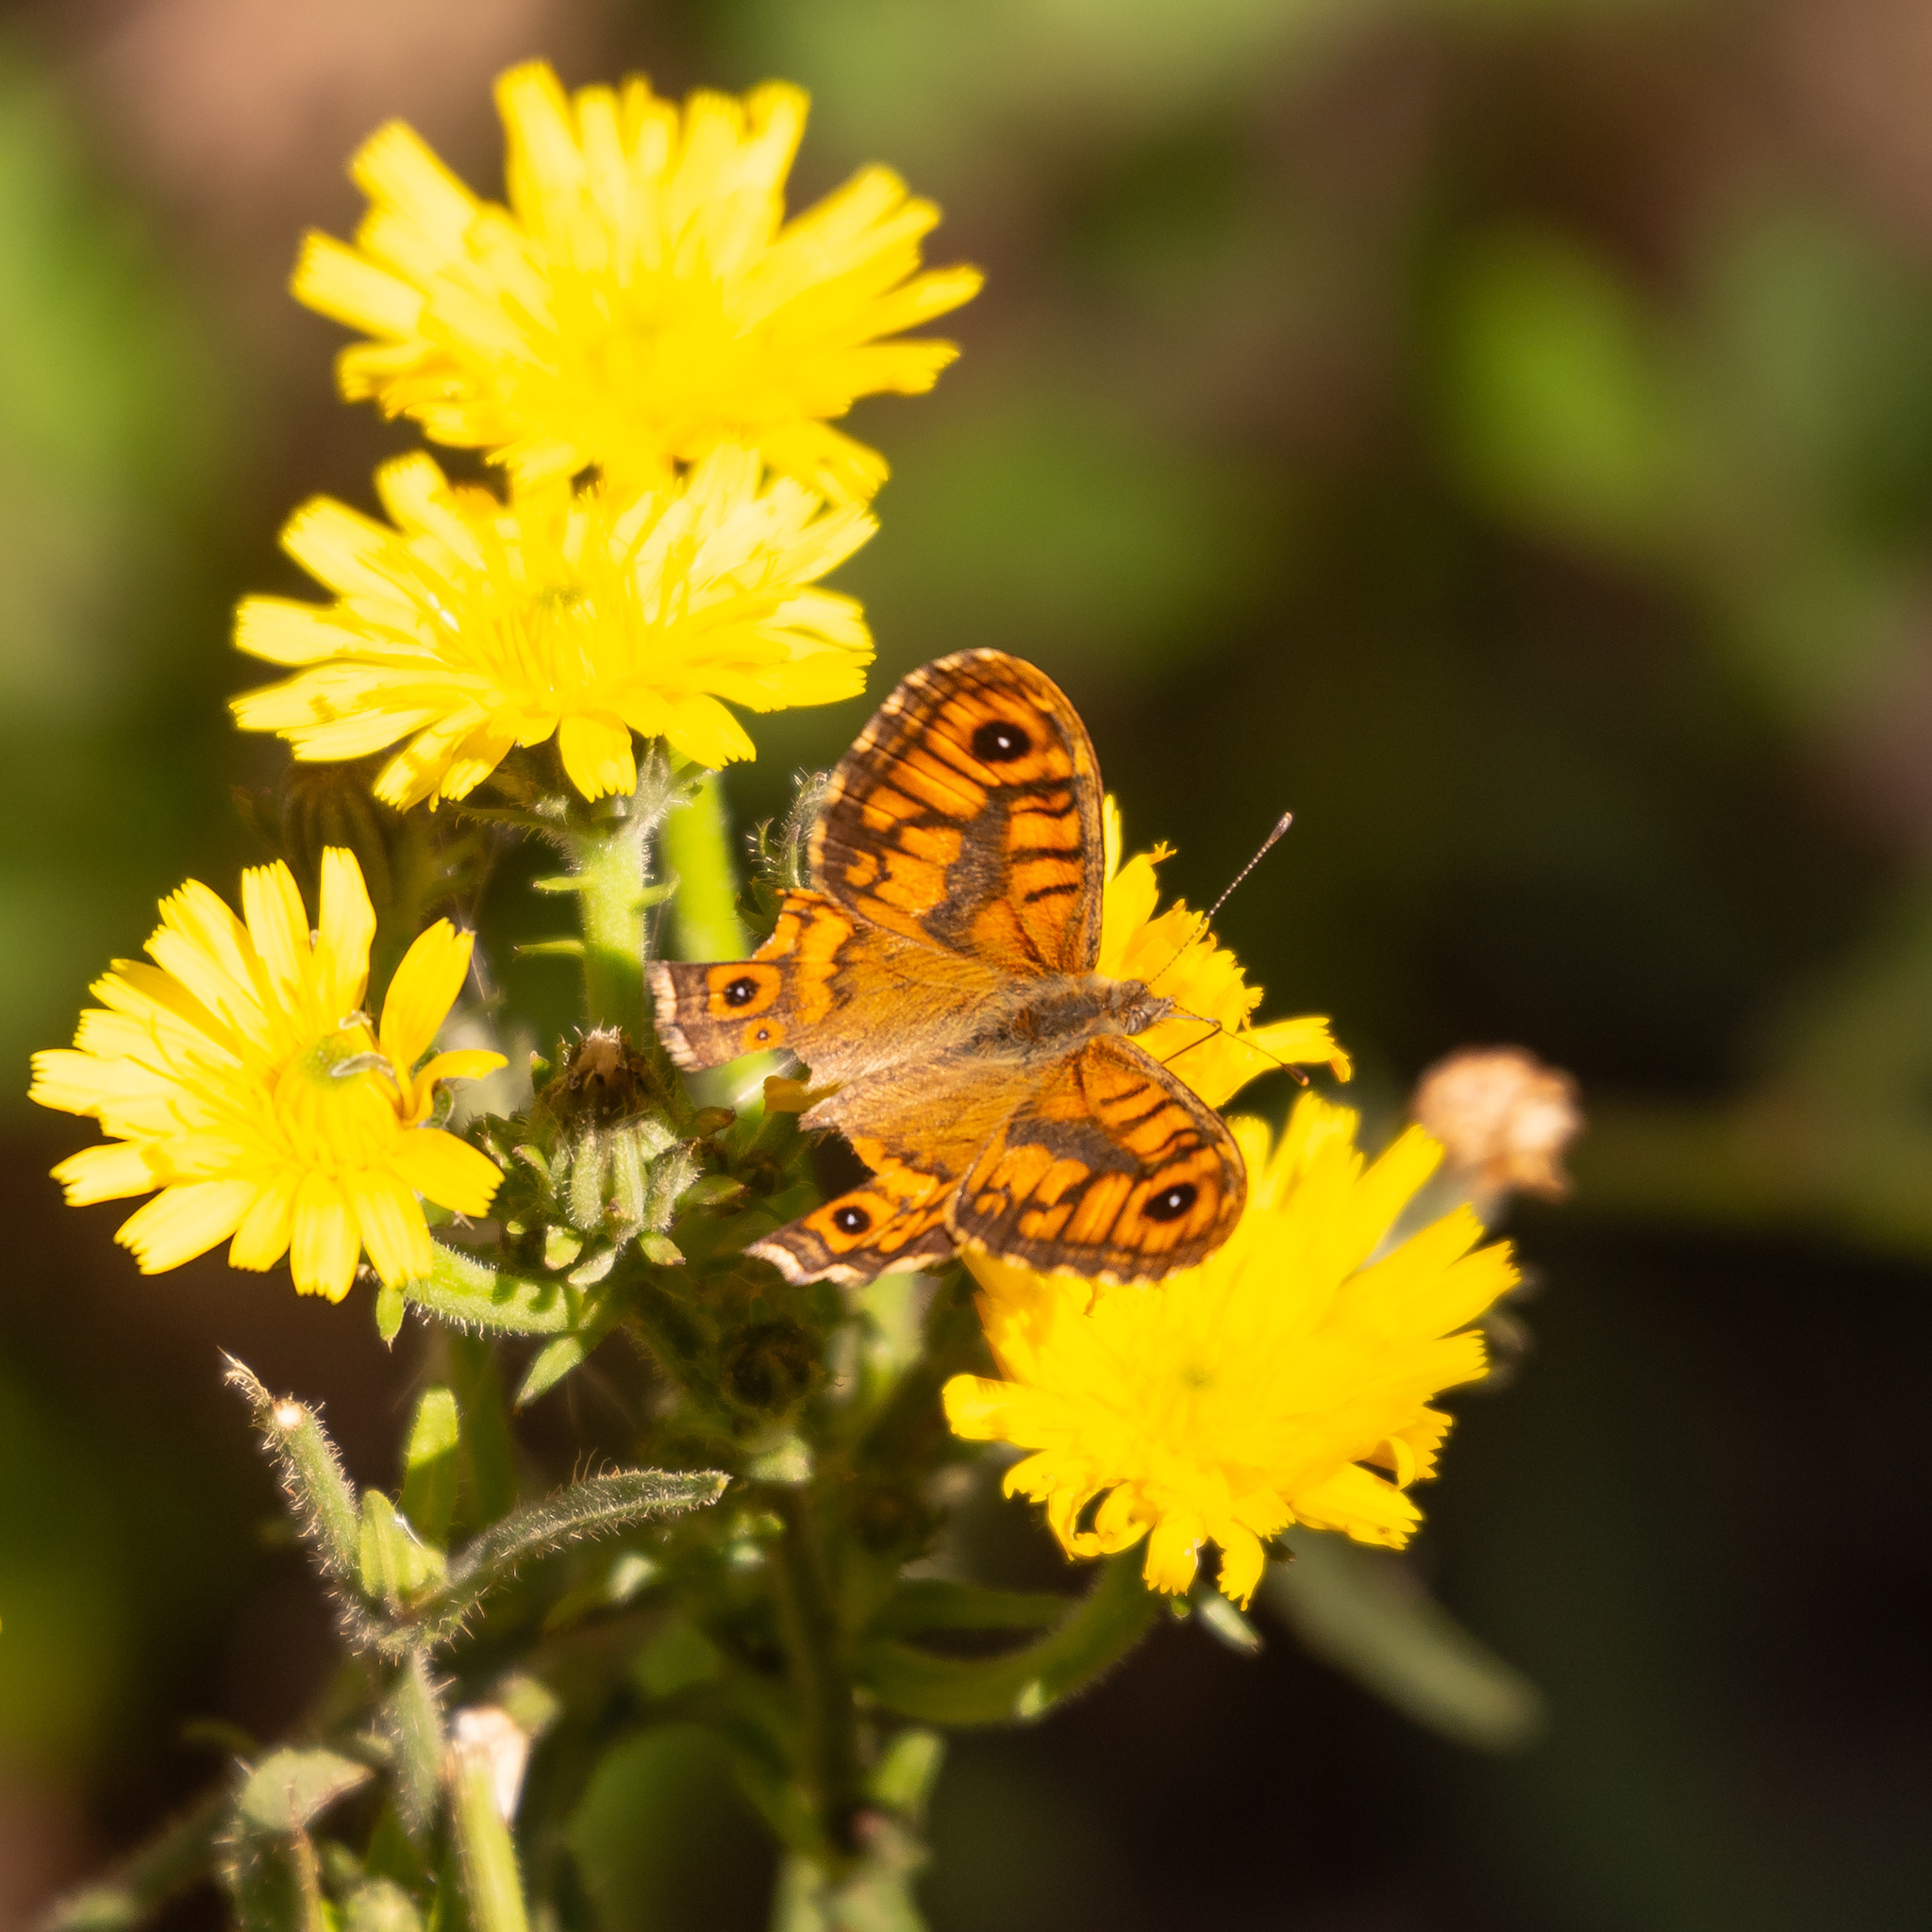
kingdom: Animalia
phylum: Arthropoda
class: Insecta
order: Lepidoptera
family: Nymphalidae
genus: Pararge
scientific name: Pararge Lasiommata megera
